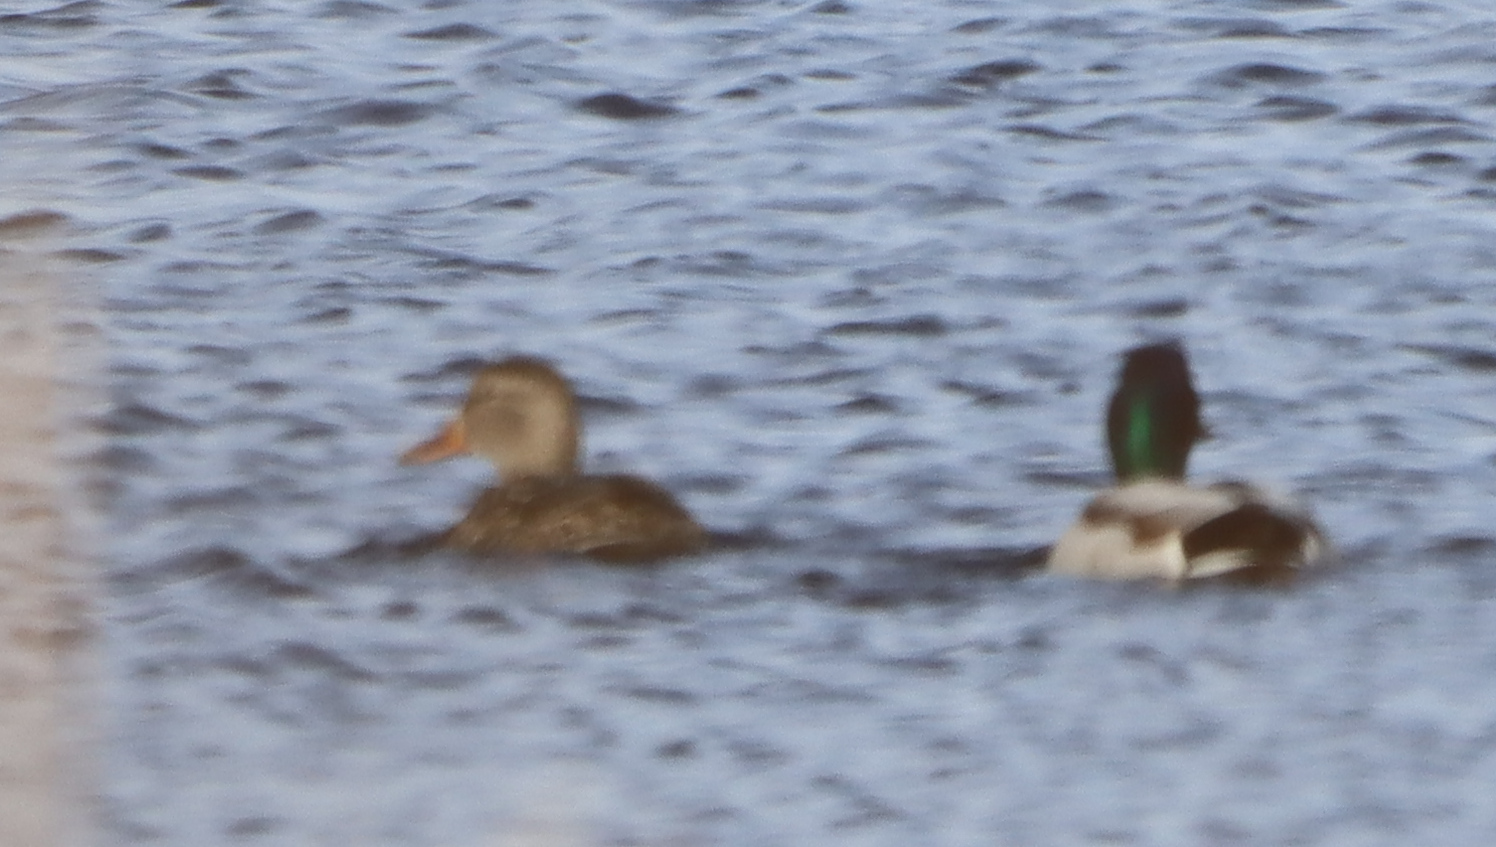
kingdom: Animalia
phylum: Chordata
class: Aves
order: Anseriformes
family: Anatidae
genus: Anas
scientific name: Anas platyrhynchos
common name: Mallard
